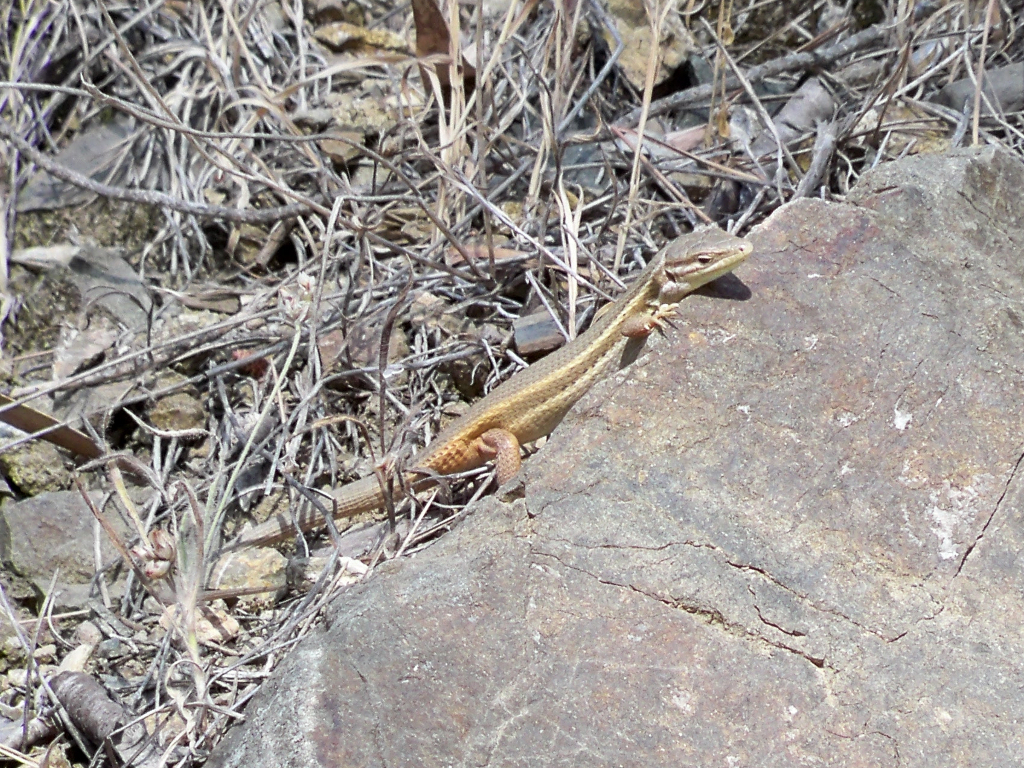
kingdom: Animalia
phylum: Chordata
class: Squamata
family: Lacertidae
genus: Psammodromus
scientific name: Psammodromus algirus
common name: Algerian psammodromus
